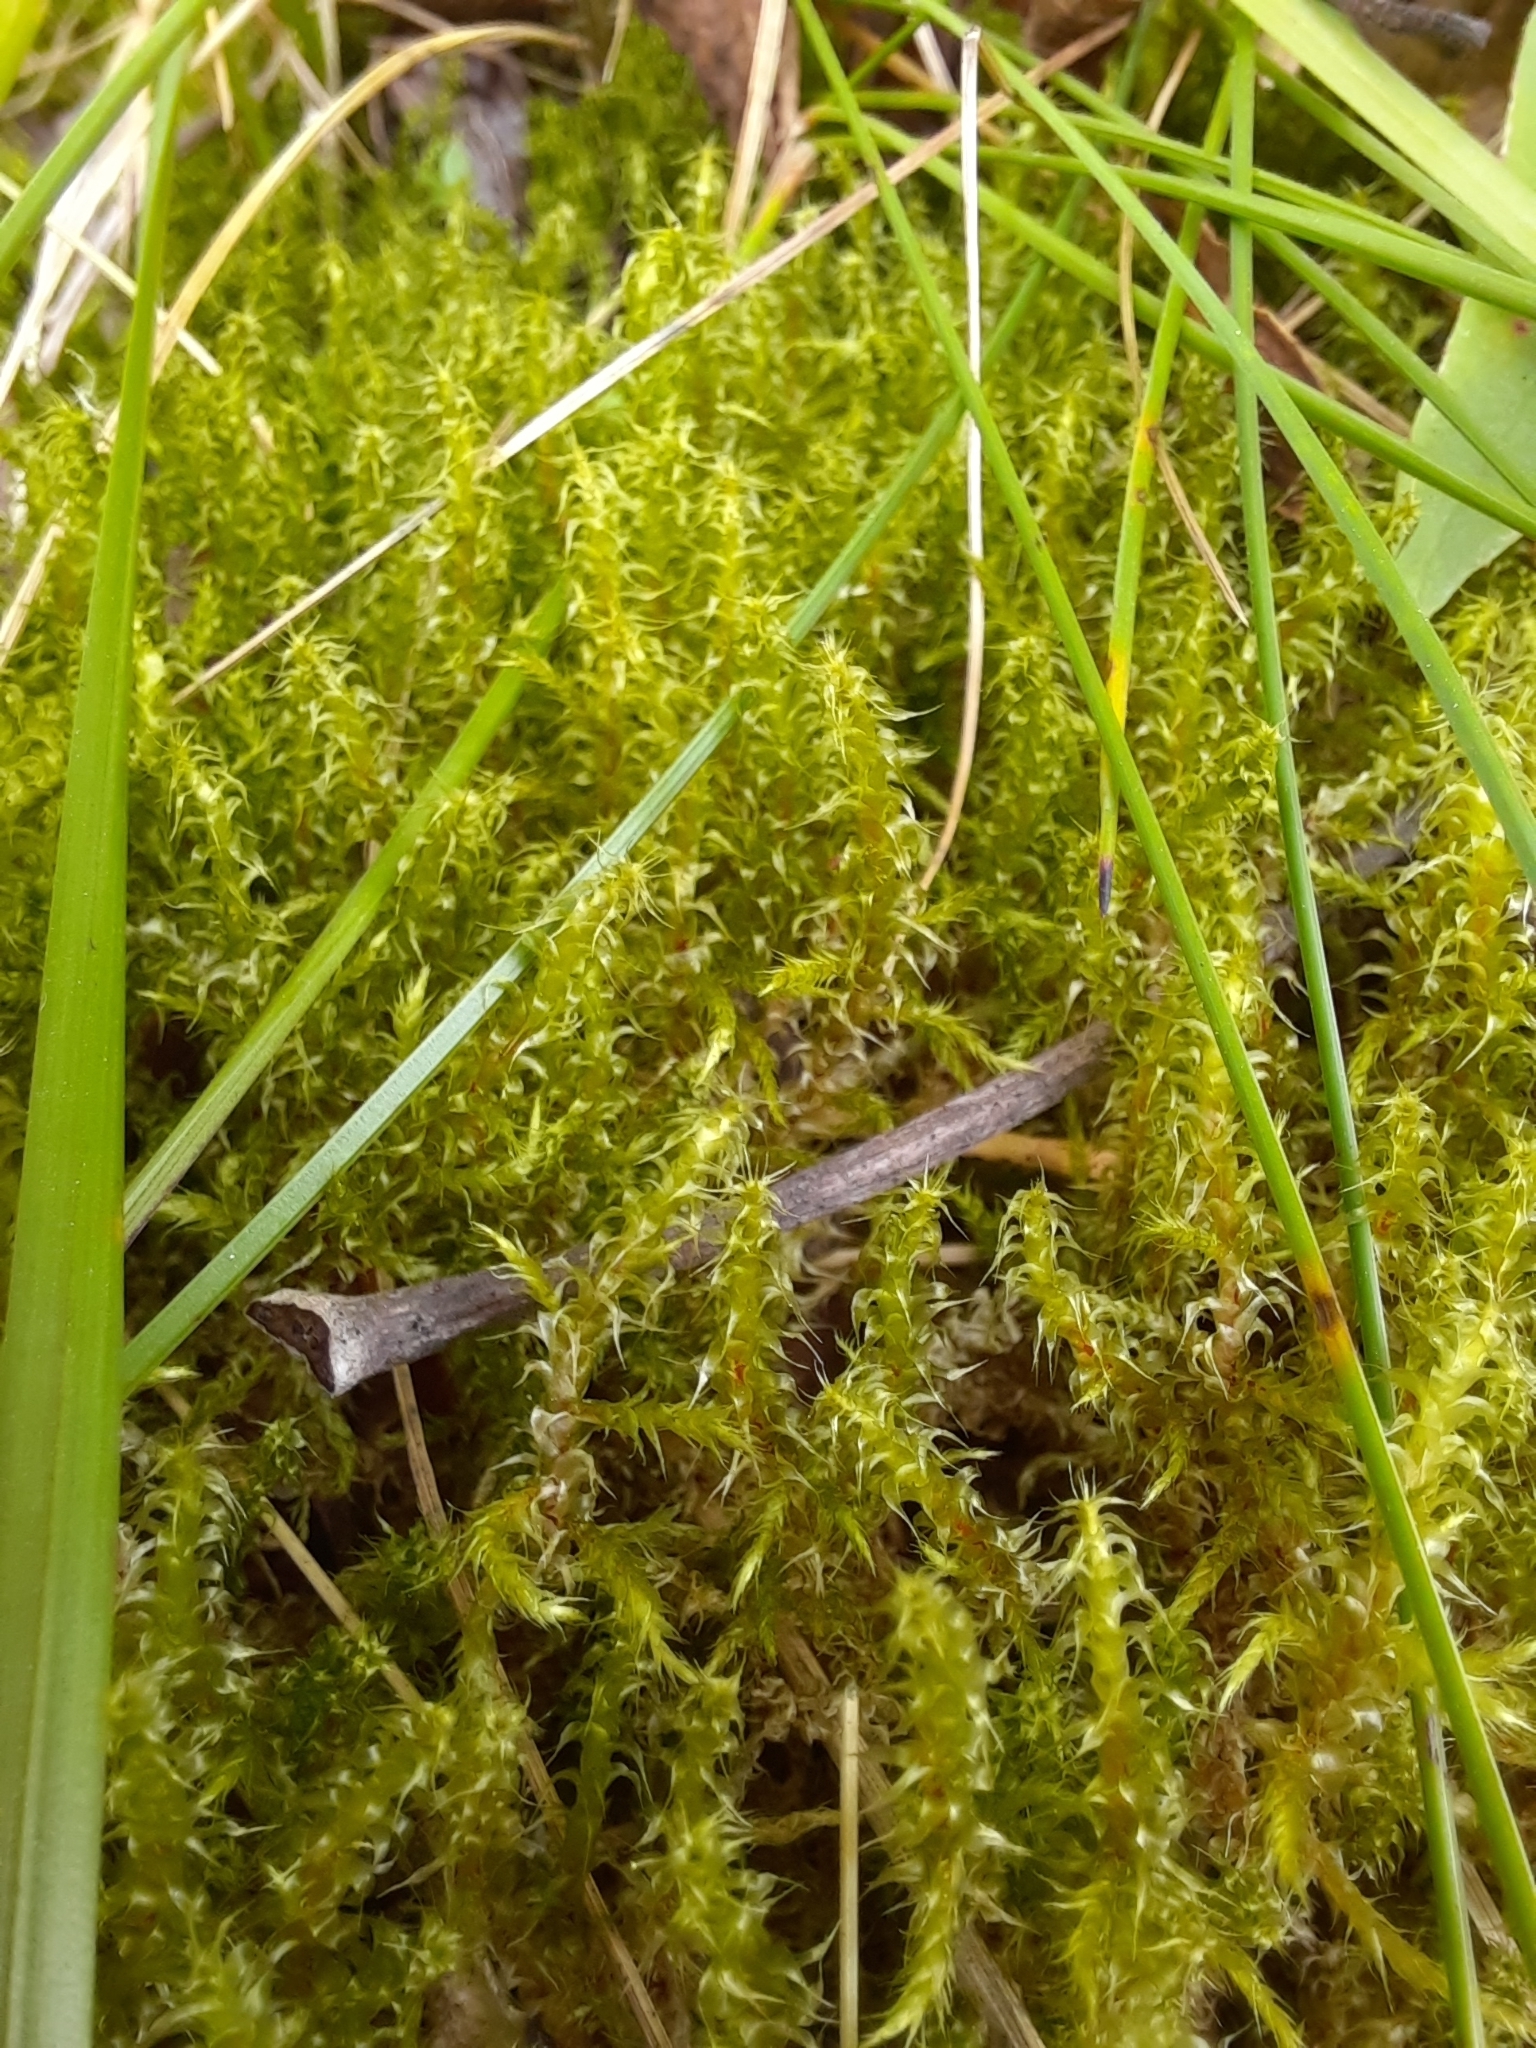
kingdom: Plantae
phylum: Bryophyta
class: Bryopsida
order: Hypnales
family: Hylocomiaceae
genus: Rhytidiadelphus
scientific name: Rhytidiadelphus squarrosus
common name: Springy turf-moss
